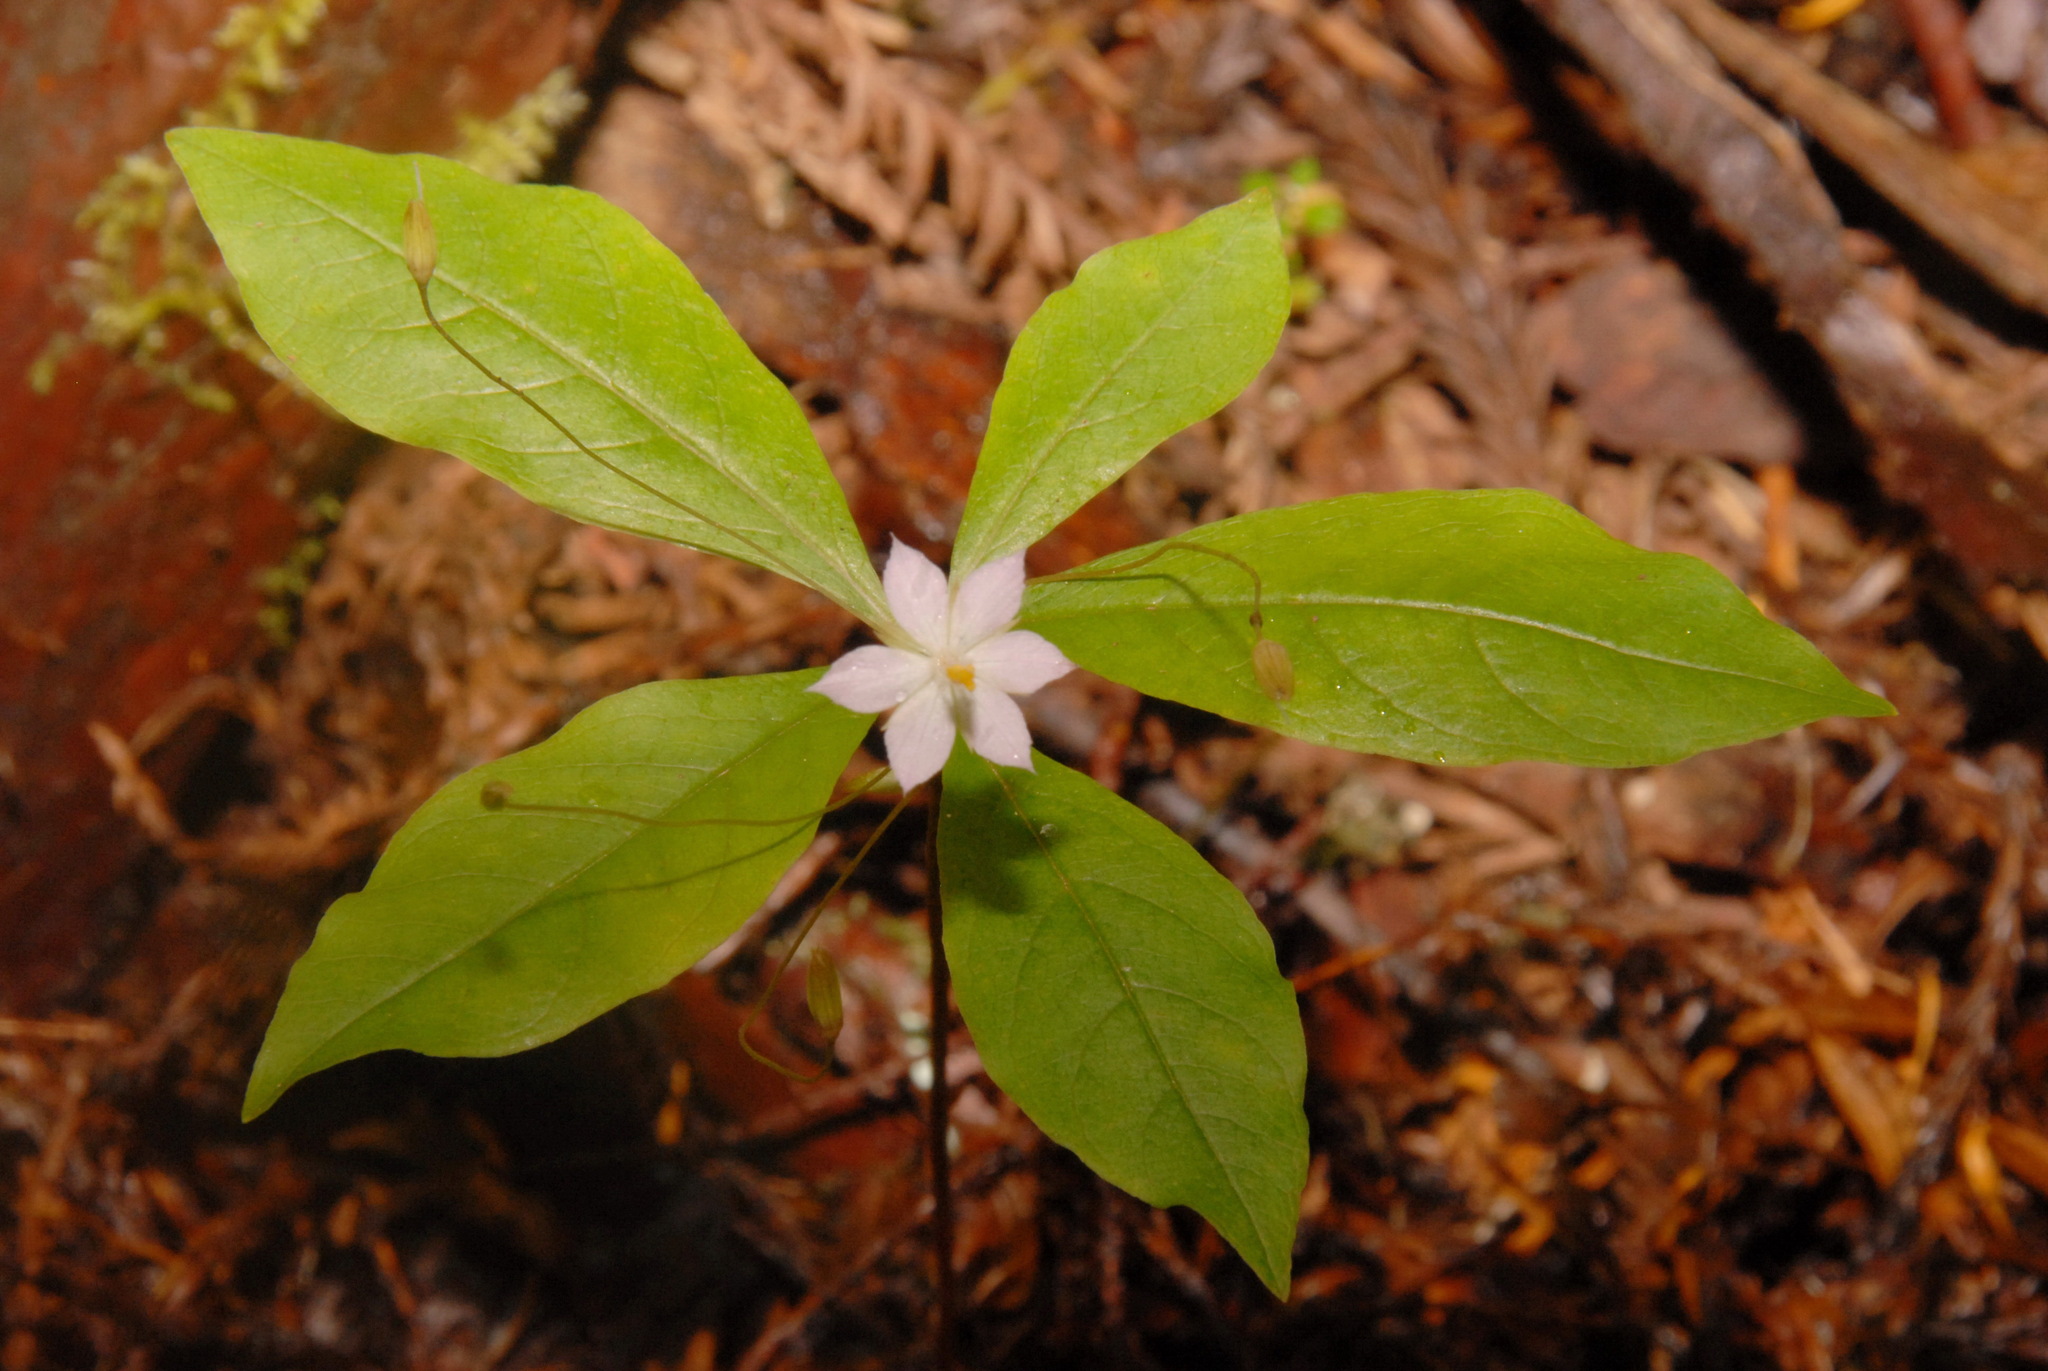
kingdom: Plantae
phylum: Tracheophyta
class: Magnoliopsida
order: Ericales
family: Primulaceae
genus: Lysimachia
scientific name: Lysimachia latifolia
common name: Pacific starflower
